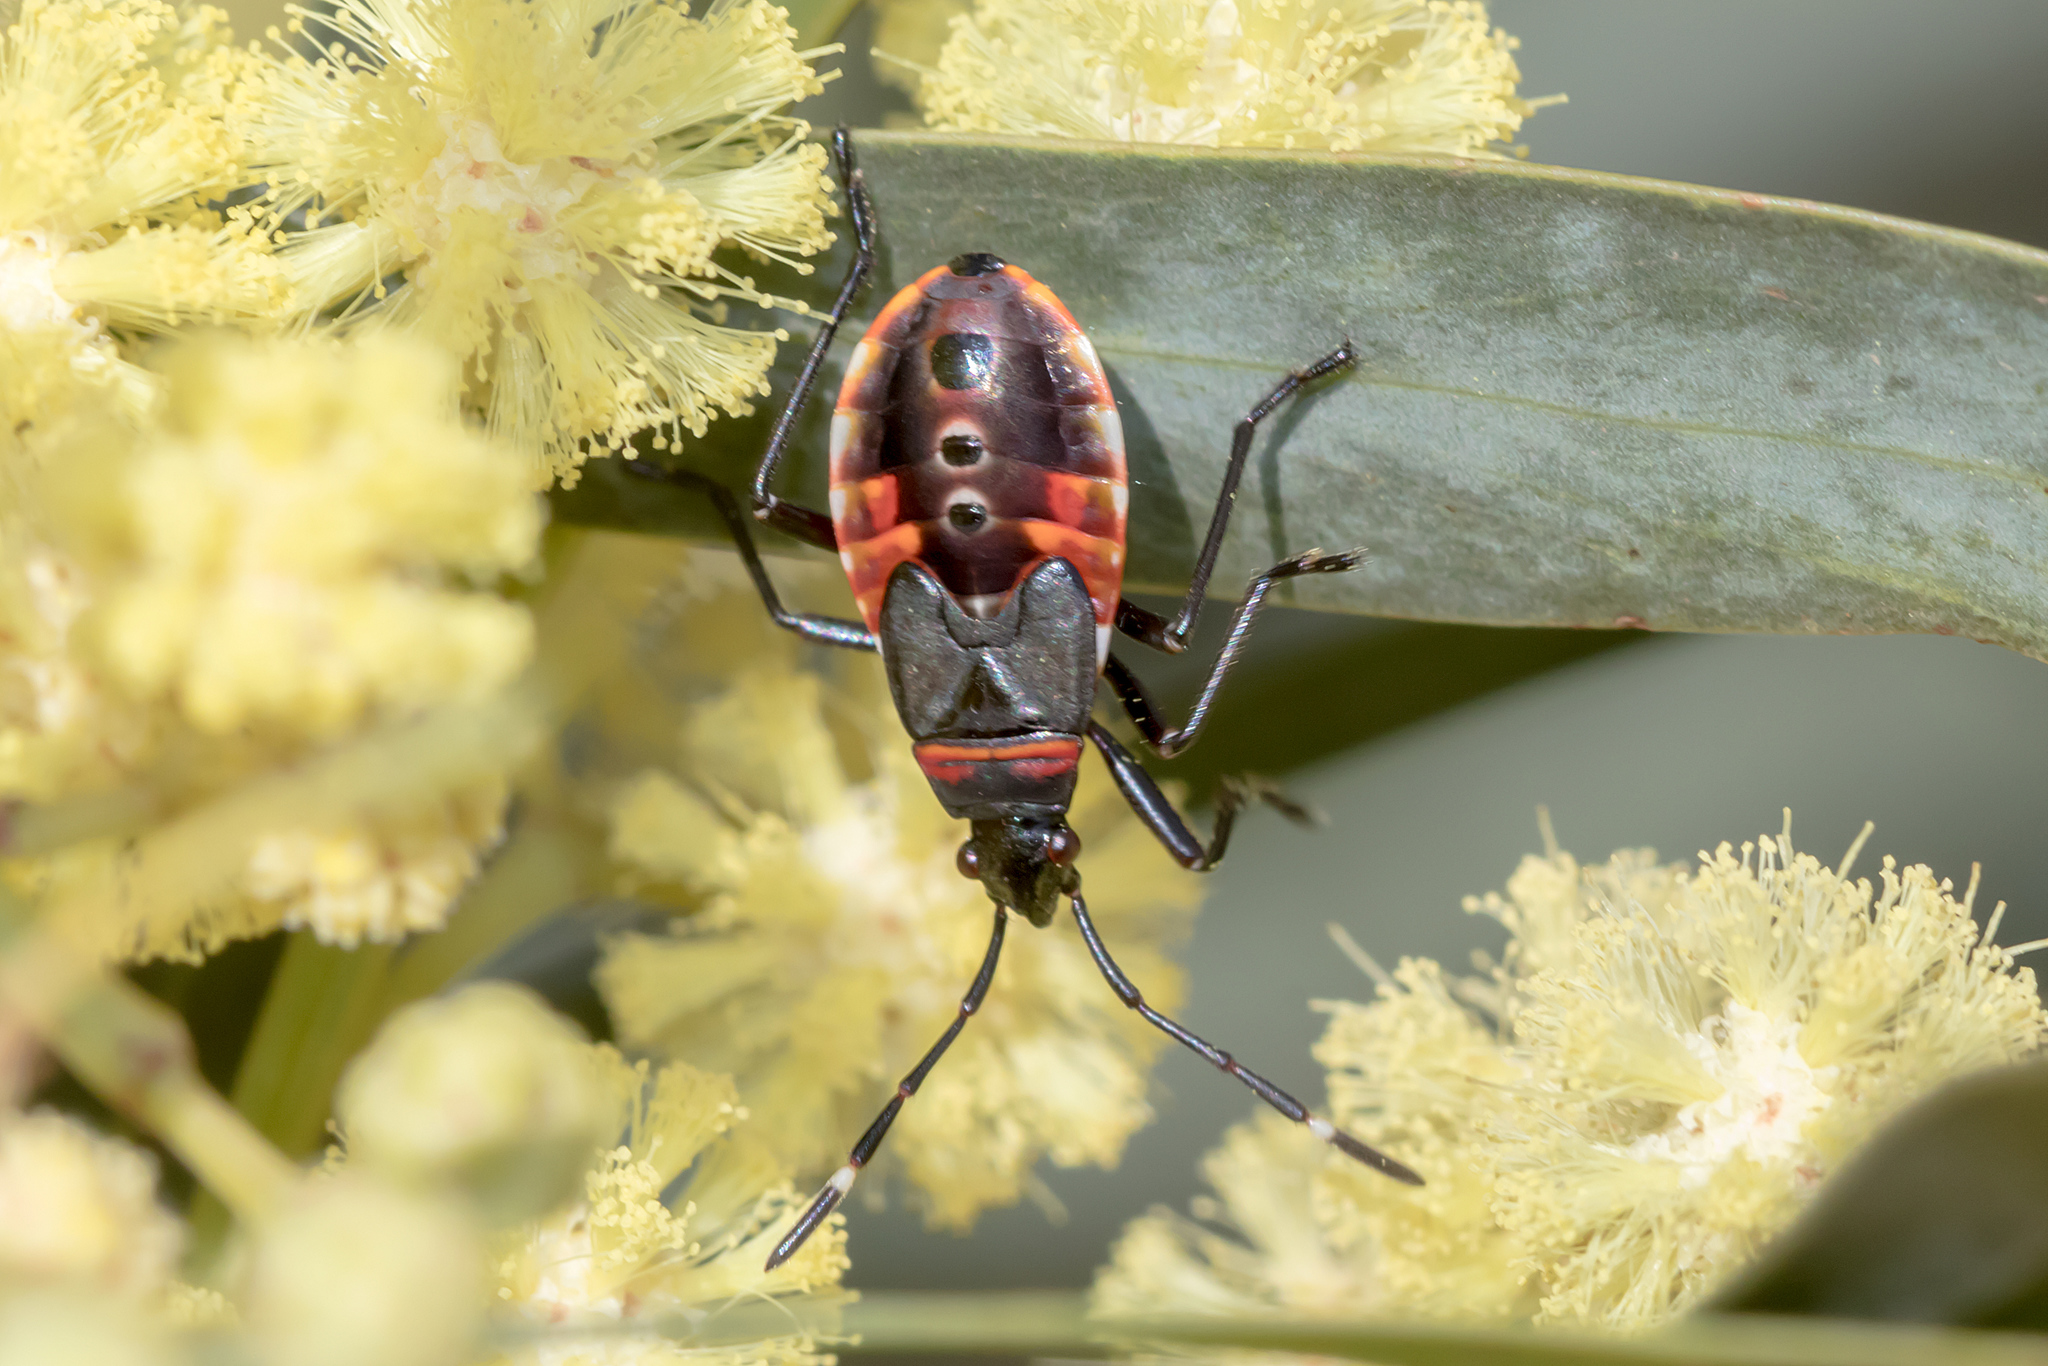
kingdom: Animalia
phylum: Arthropoda
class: Insecta
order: Hemiptera
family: Pyrrhocoridae
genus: Dindymus
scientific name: Dindymus
